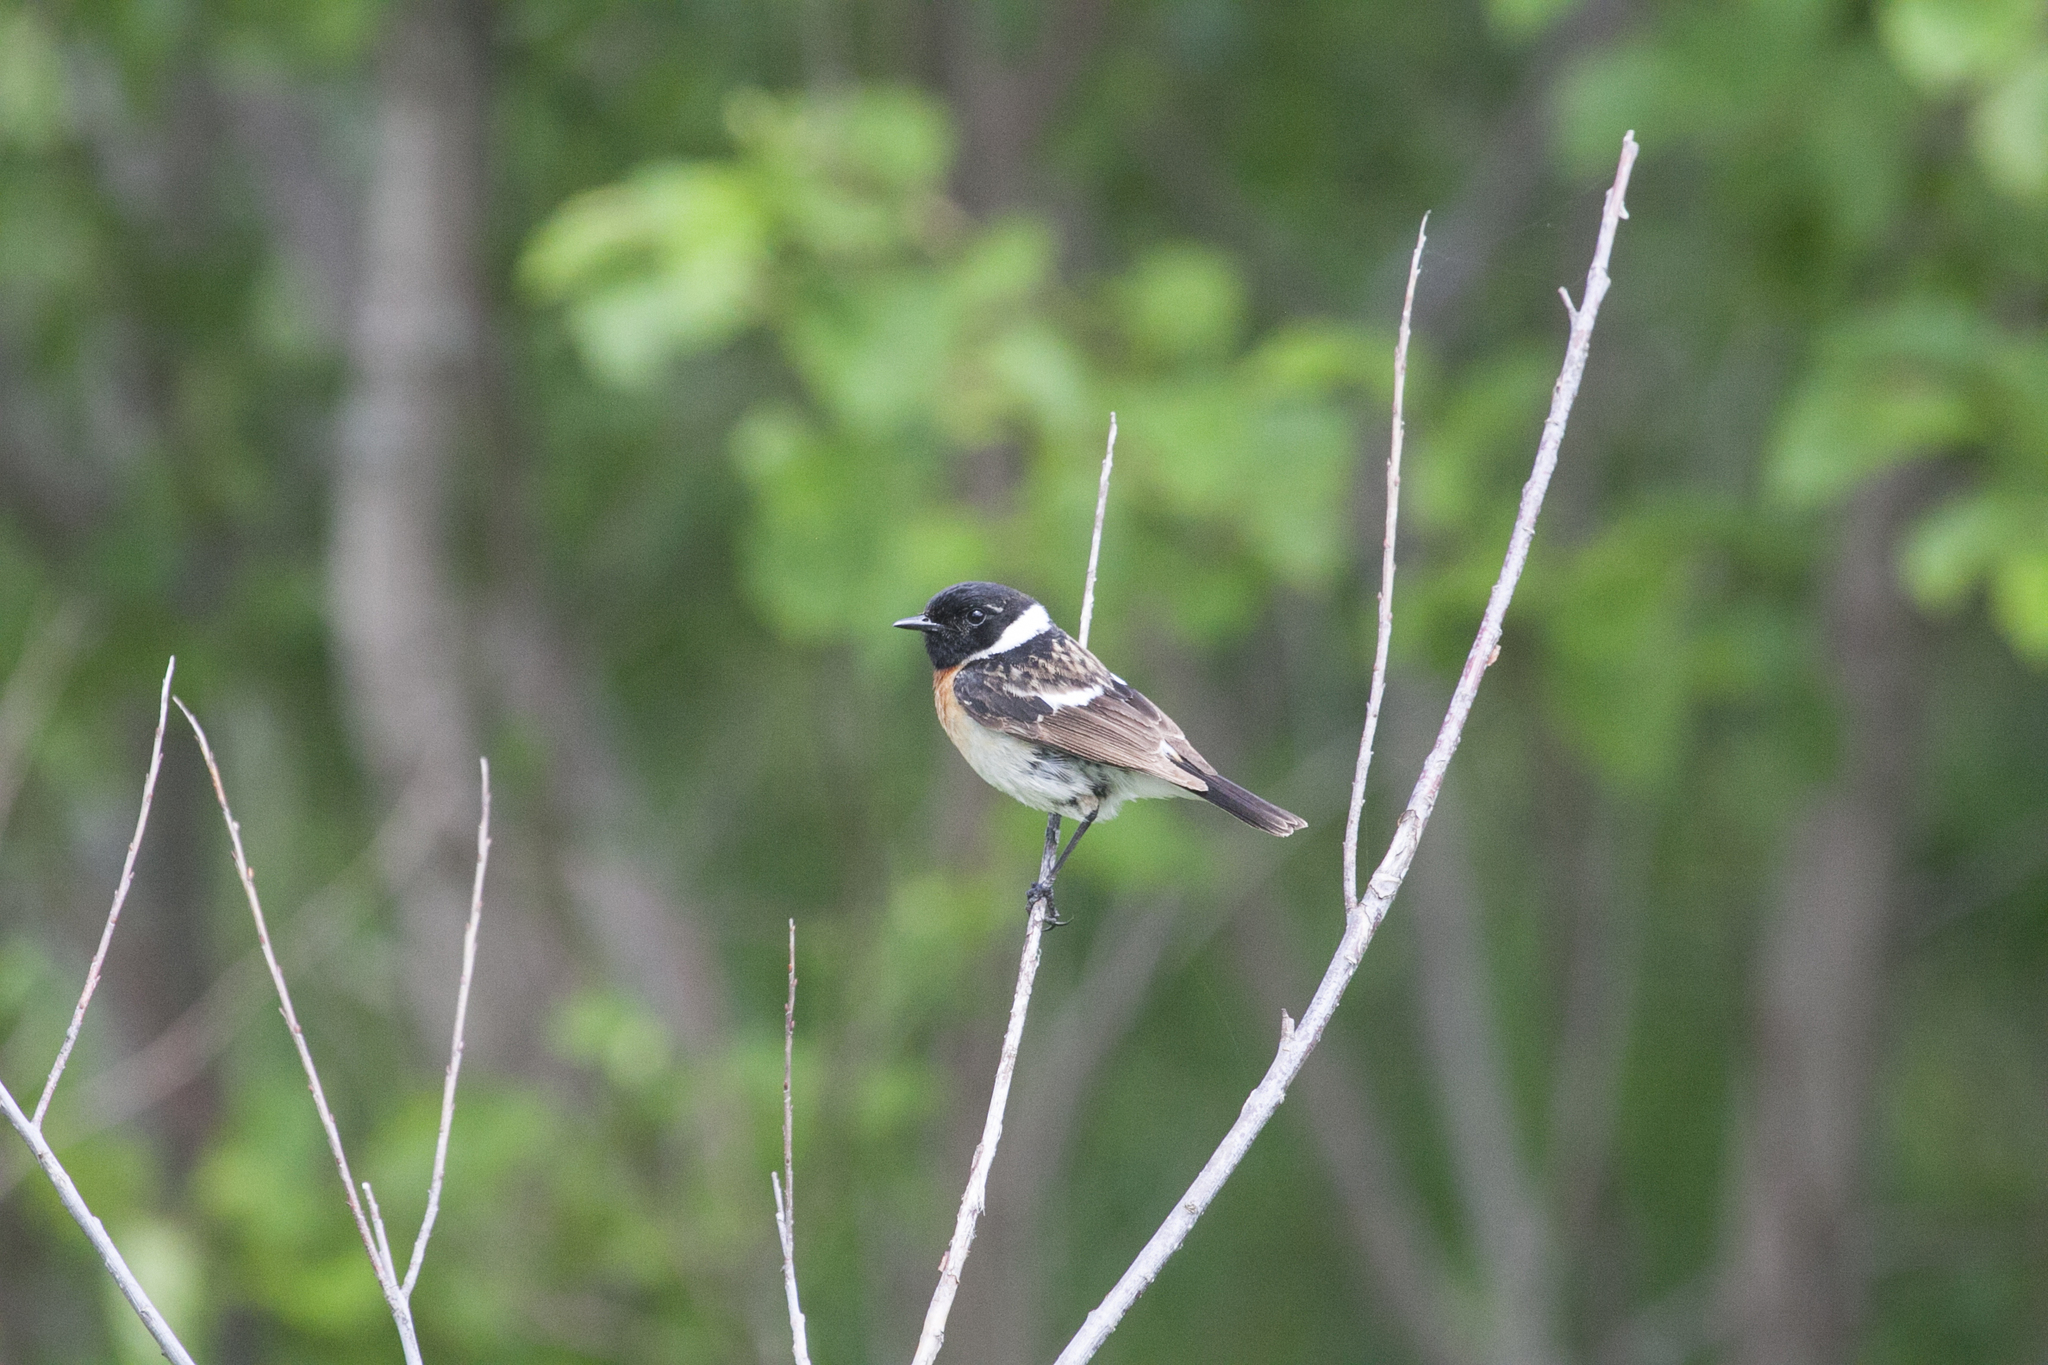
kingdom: Animalia
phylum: Chordata
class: Aves
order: Passeriformes
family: Muscicapidae
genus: Saxicola
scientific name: Saxicola maurus
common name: Siberian stonechat
